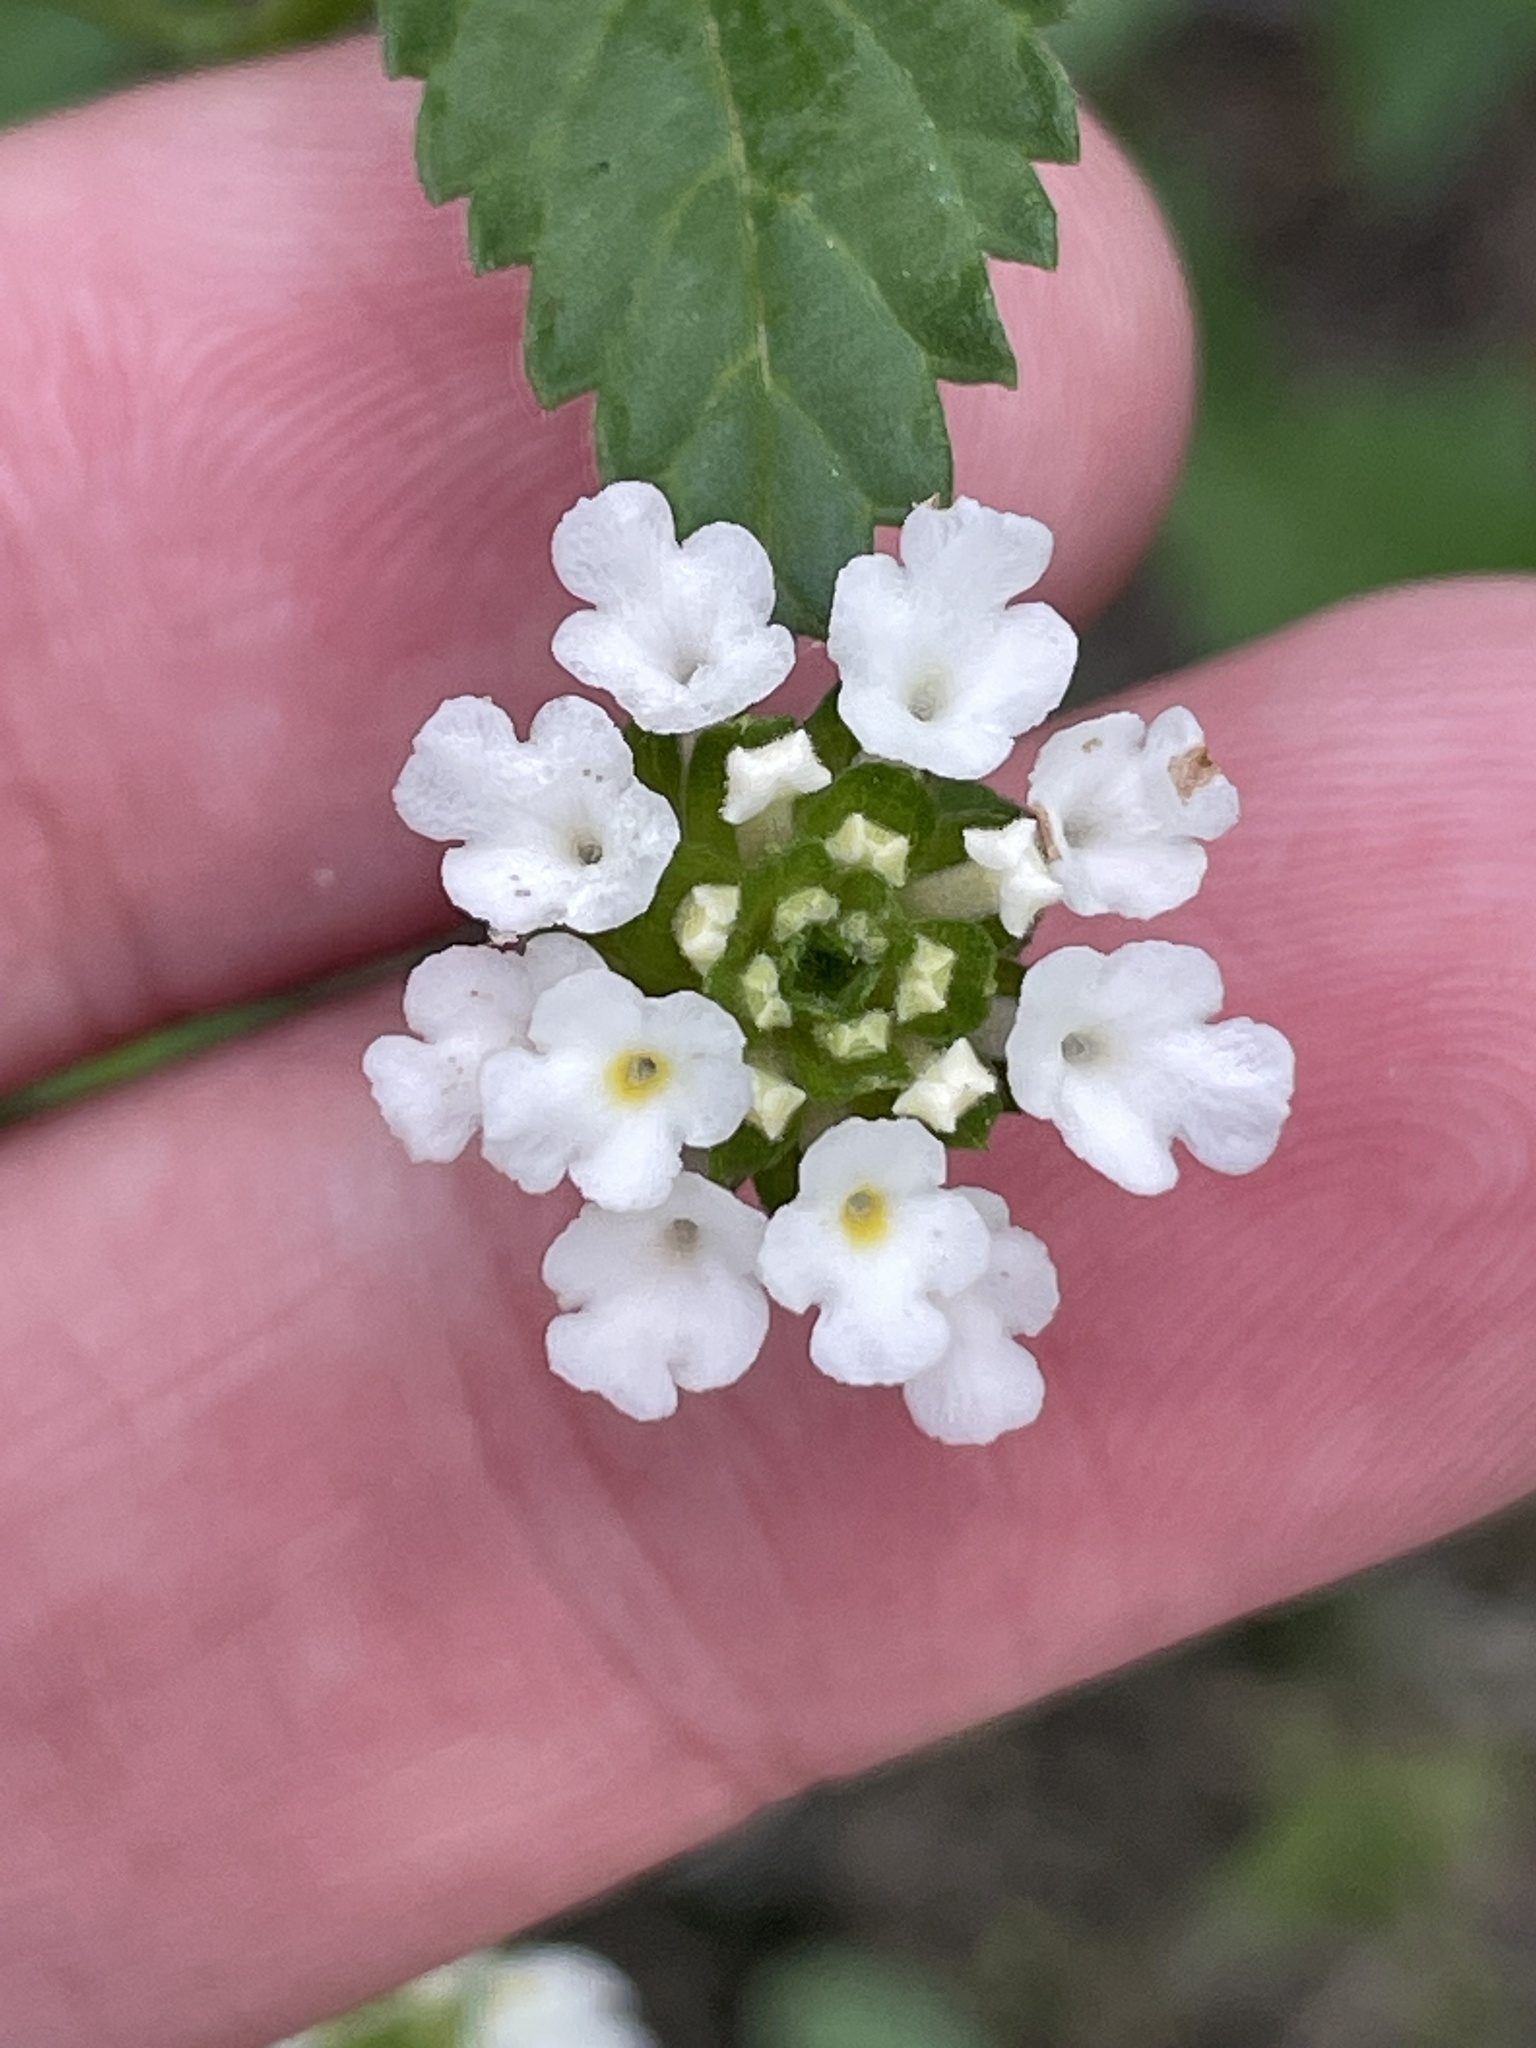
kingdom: Plantae
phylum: Tracheophyta
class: Magnoliopsida
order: Lamiales
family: Verbenaceae
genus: Lantana
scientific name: Lantana achyranthifolia
